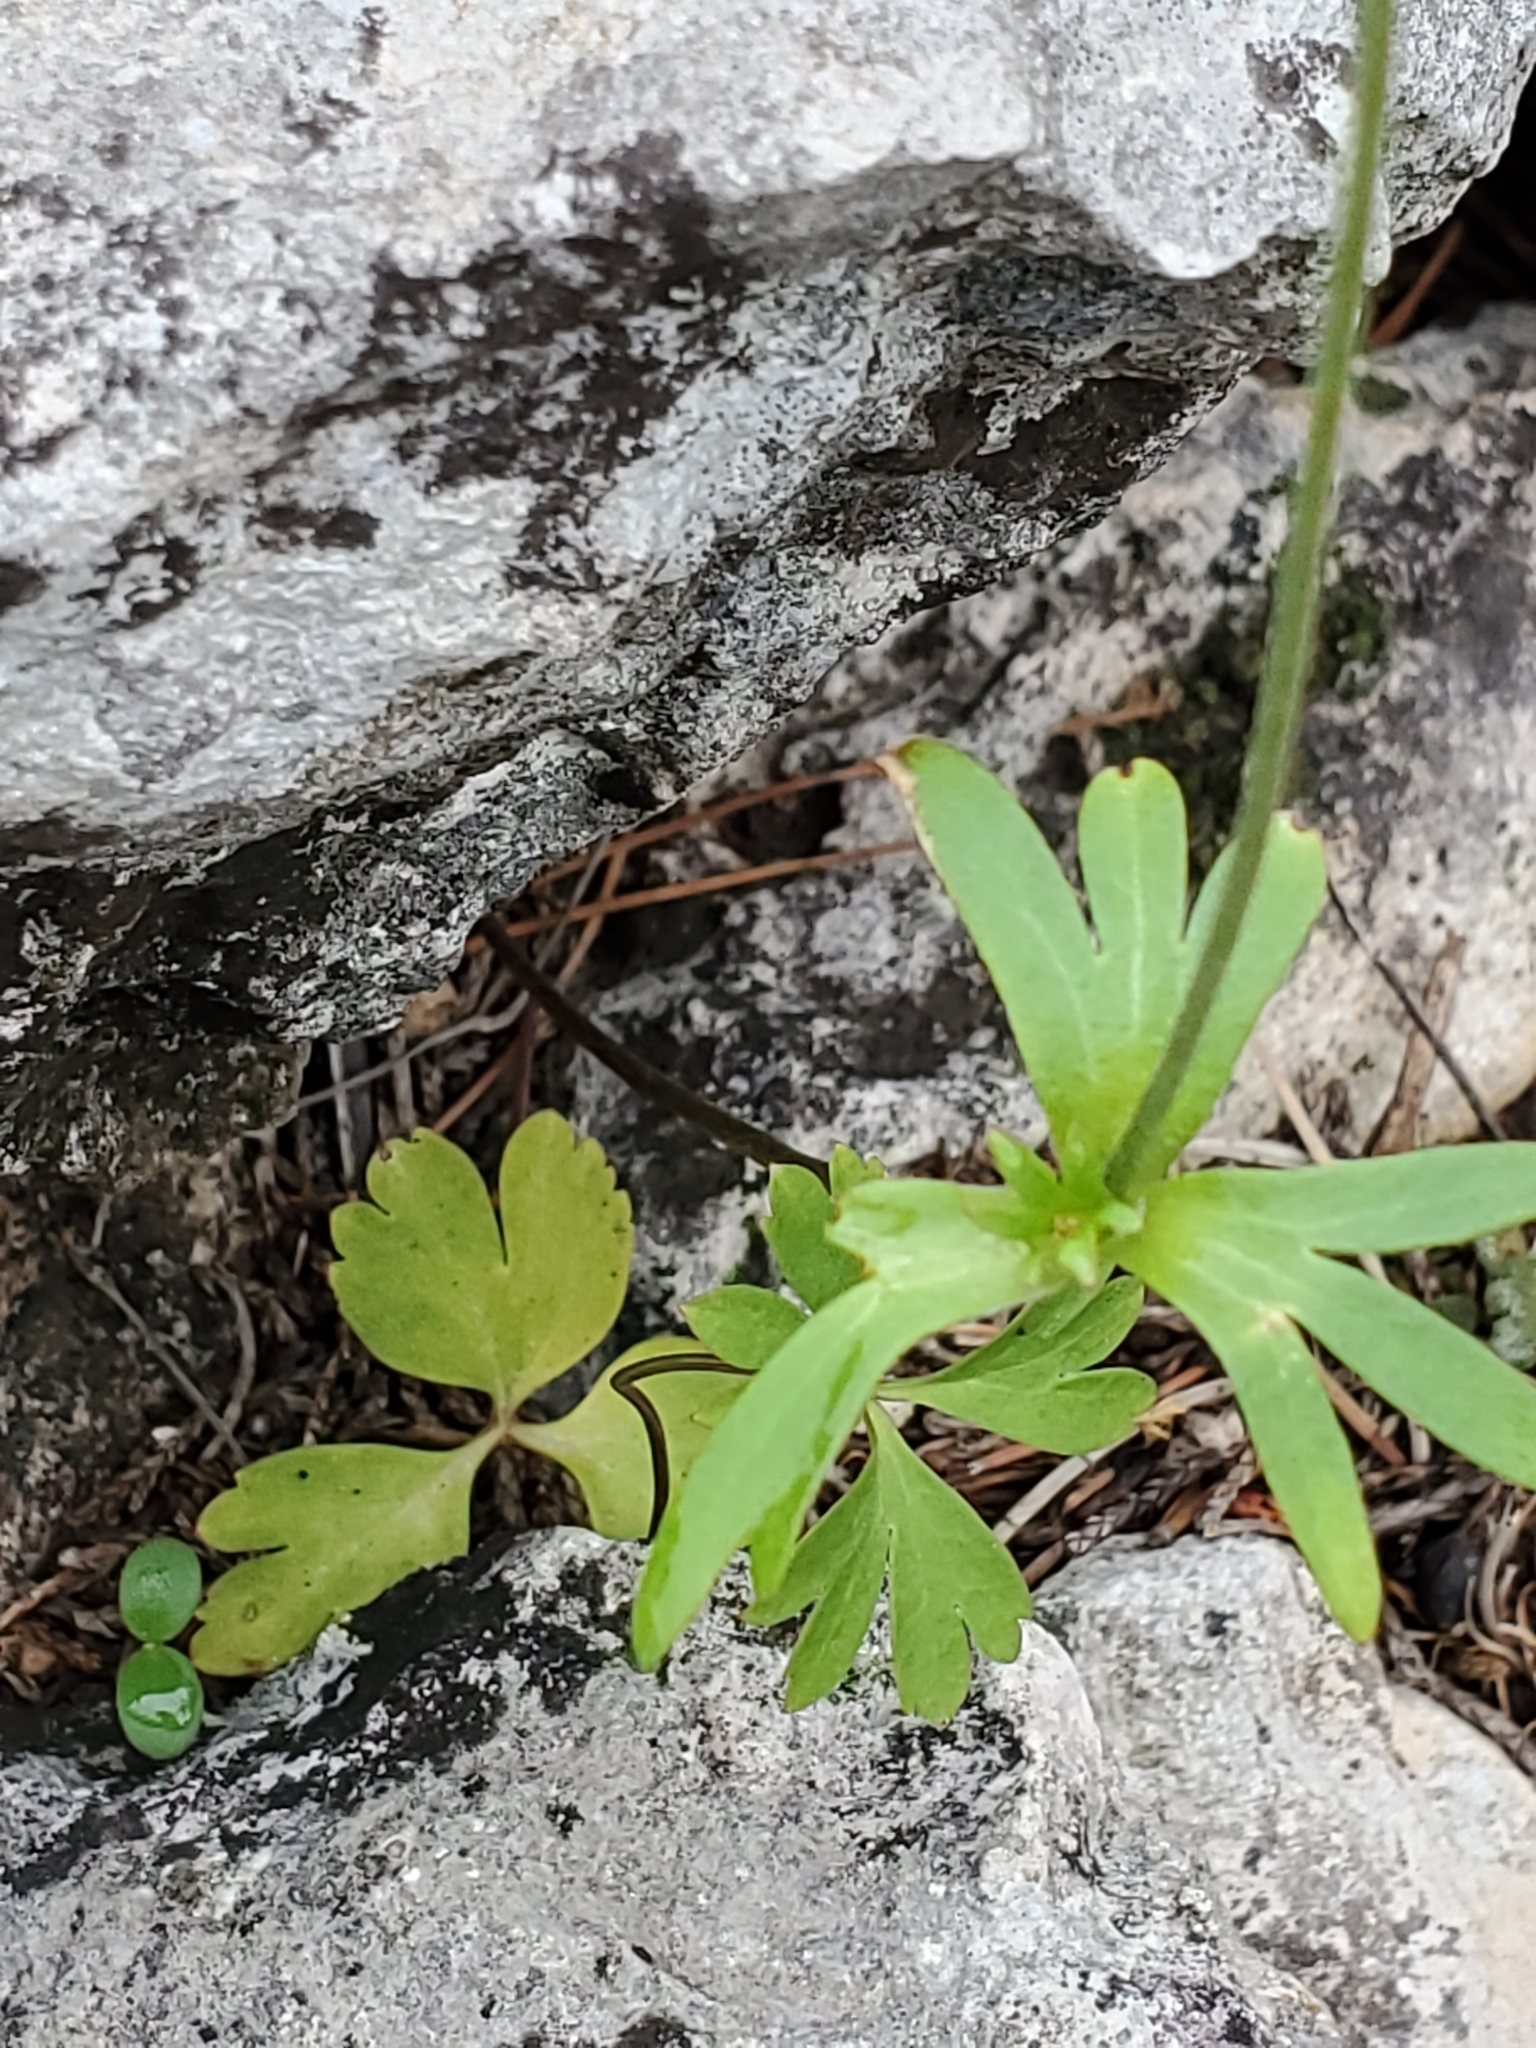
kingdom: Plantae
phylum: Tracheophyta
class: Magnoliopsida
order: Ranunculales
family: Ranunculaceae
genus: Anemone
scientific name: Anemone edwardsiana
